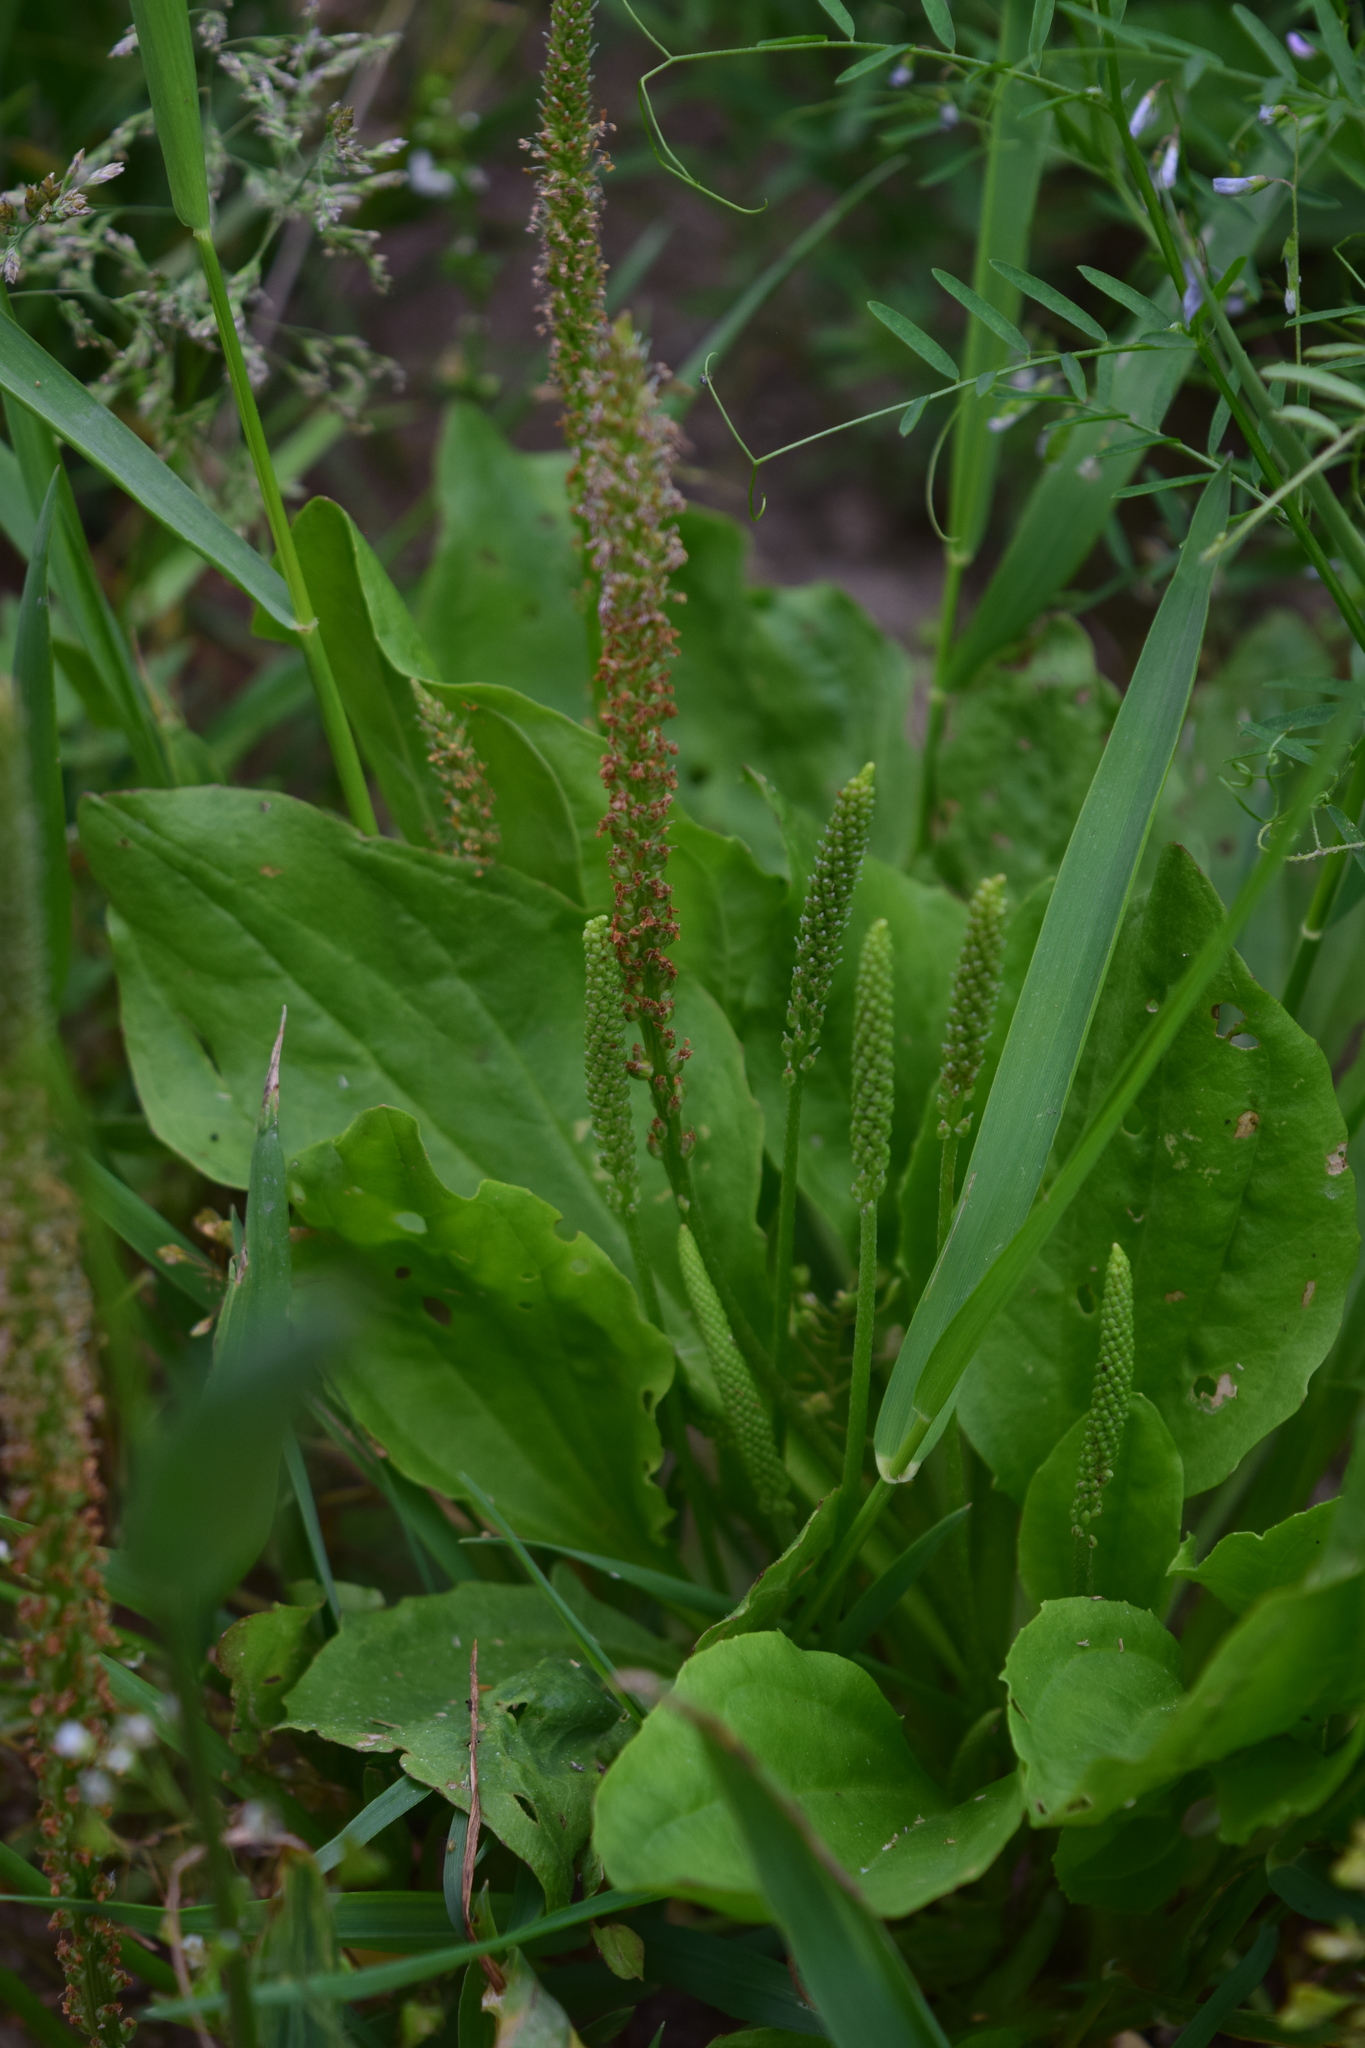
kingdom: Plantae
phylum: Tracheophyta
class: Magnoliopsida
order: Lamiales
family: Plantaginaceae
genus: Plantago
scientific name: Plantago major
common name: Common plantain
